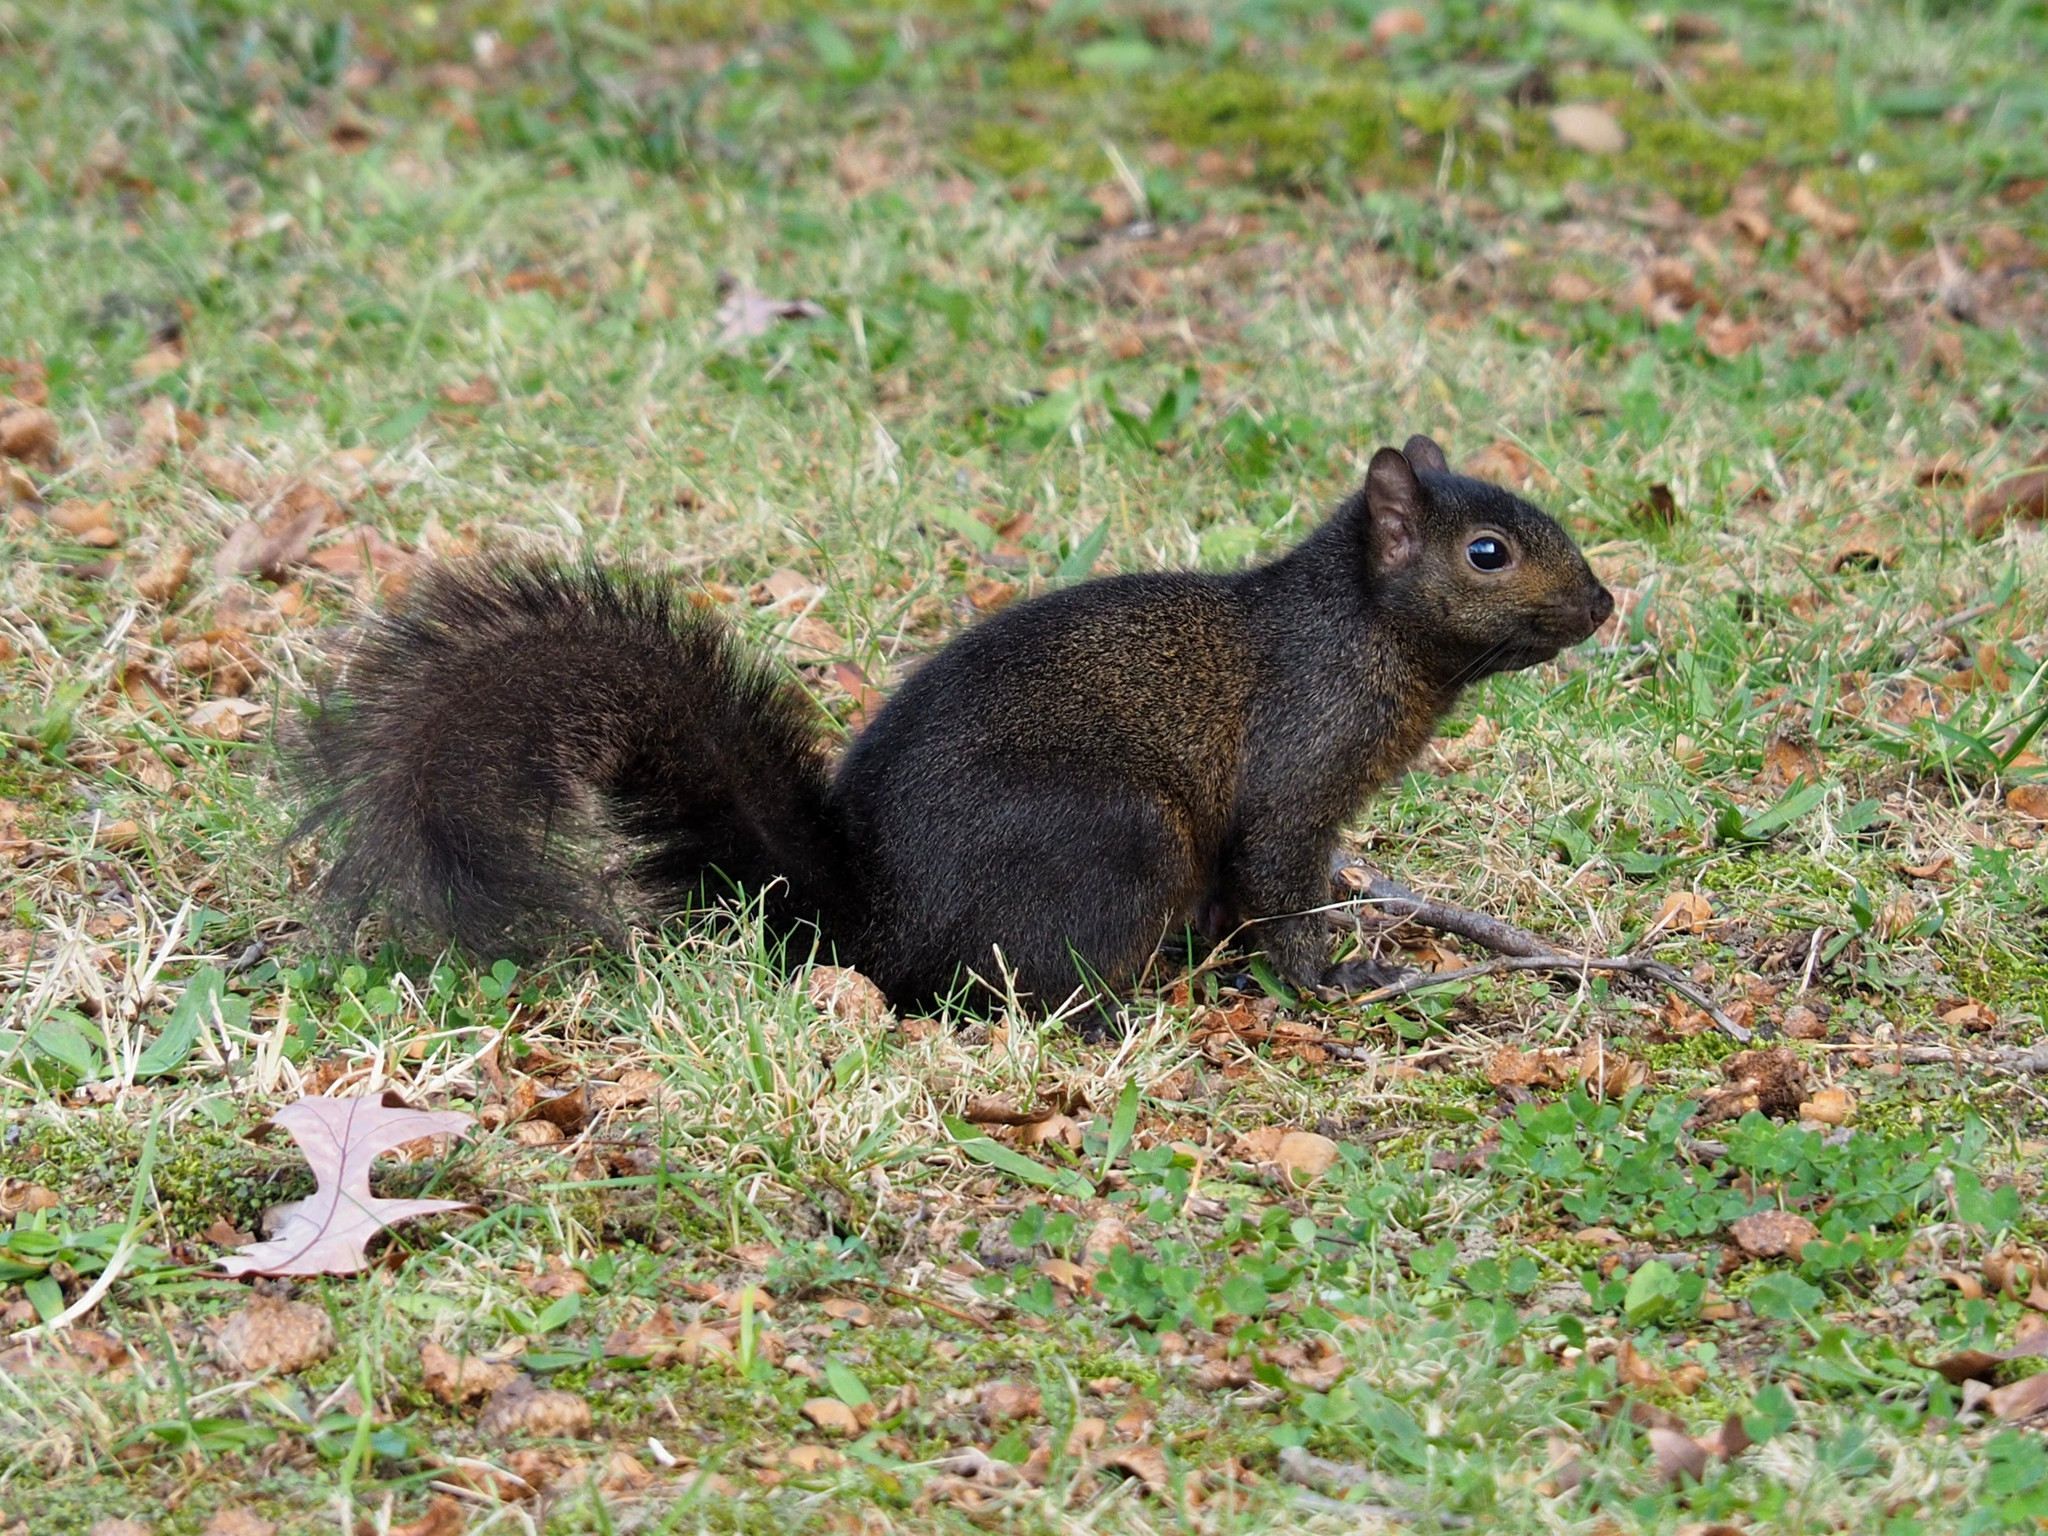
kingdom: Animalia
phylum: Chordata
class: Mammalia
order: Rodentia
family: Sciuridae
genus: Sciurus
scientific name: Sciurus carolinensis
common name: Eastern gray squirrel
